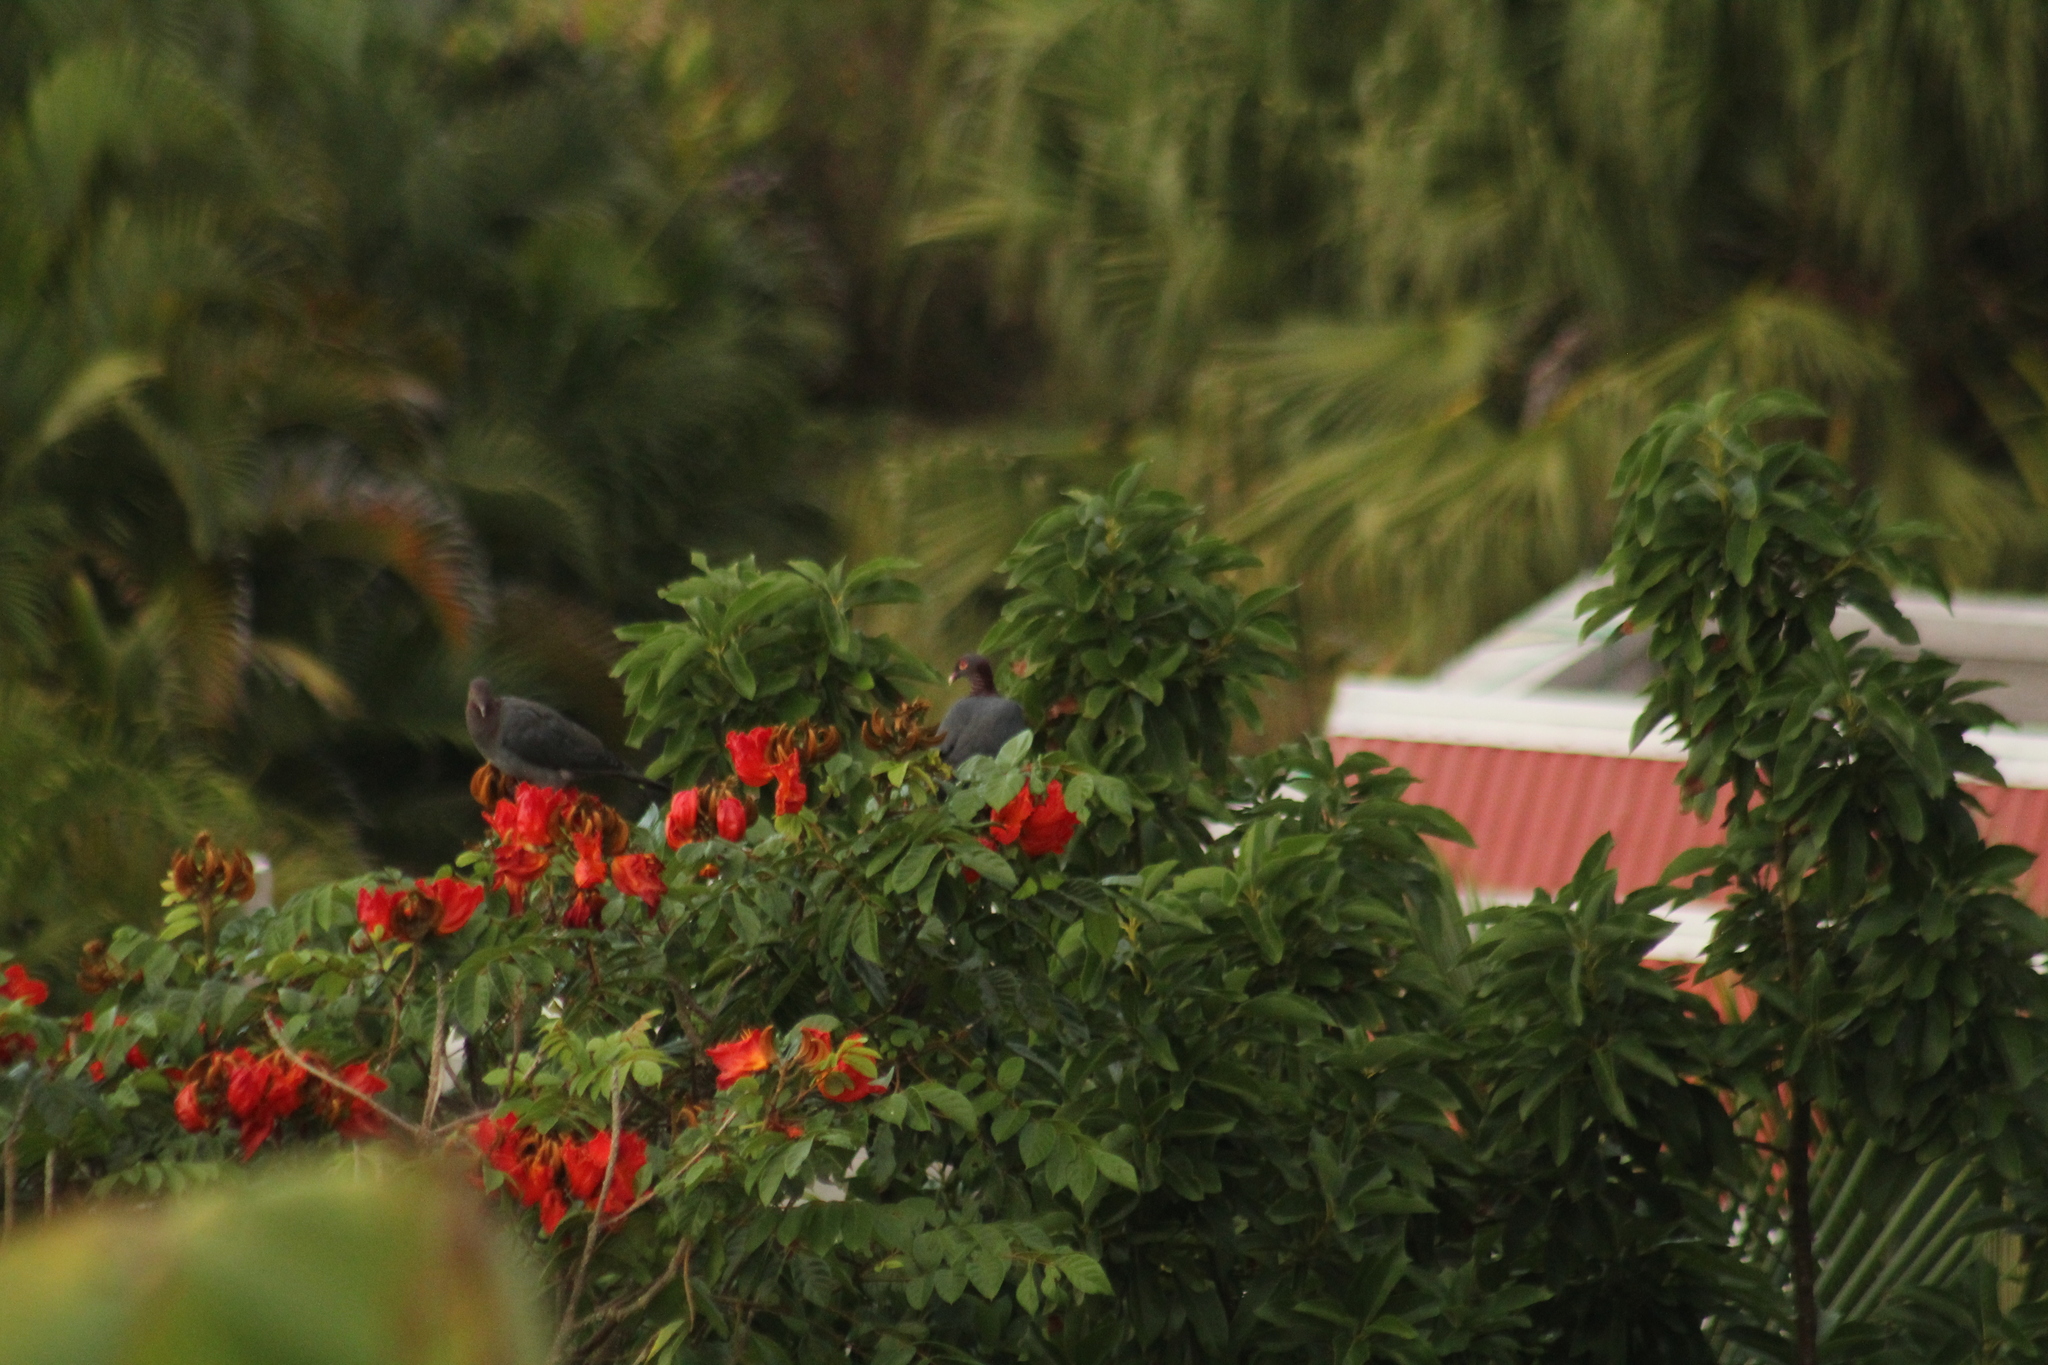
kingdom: Animalia
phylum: Chordata
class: Aves
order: Columbiformes
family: Columbidae
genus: Patagioenas
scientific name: Patagioenas squamosa
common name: Scaly-naped pigeon
